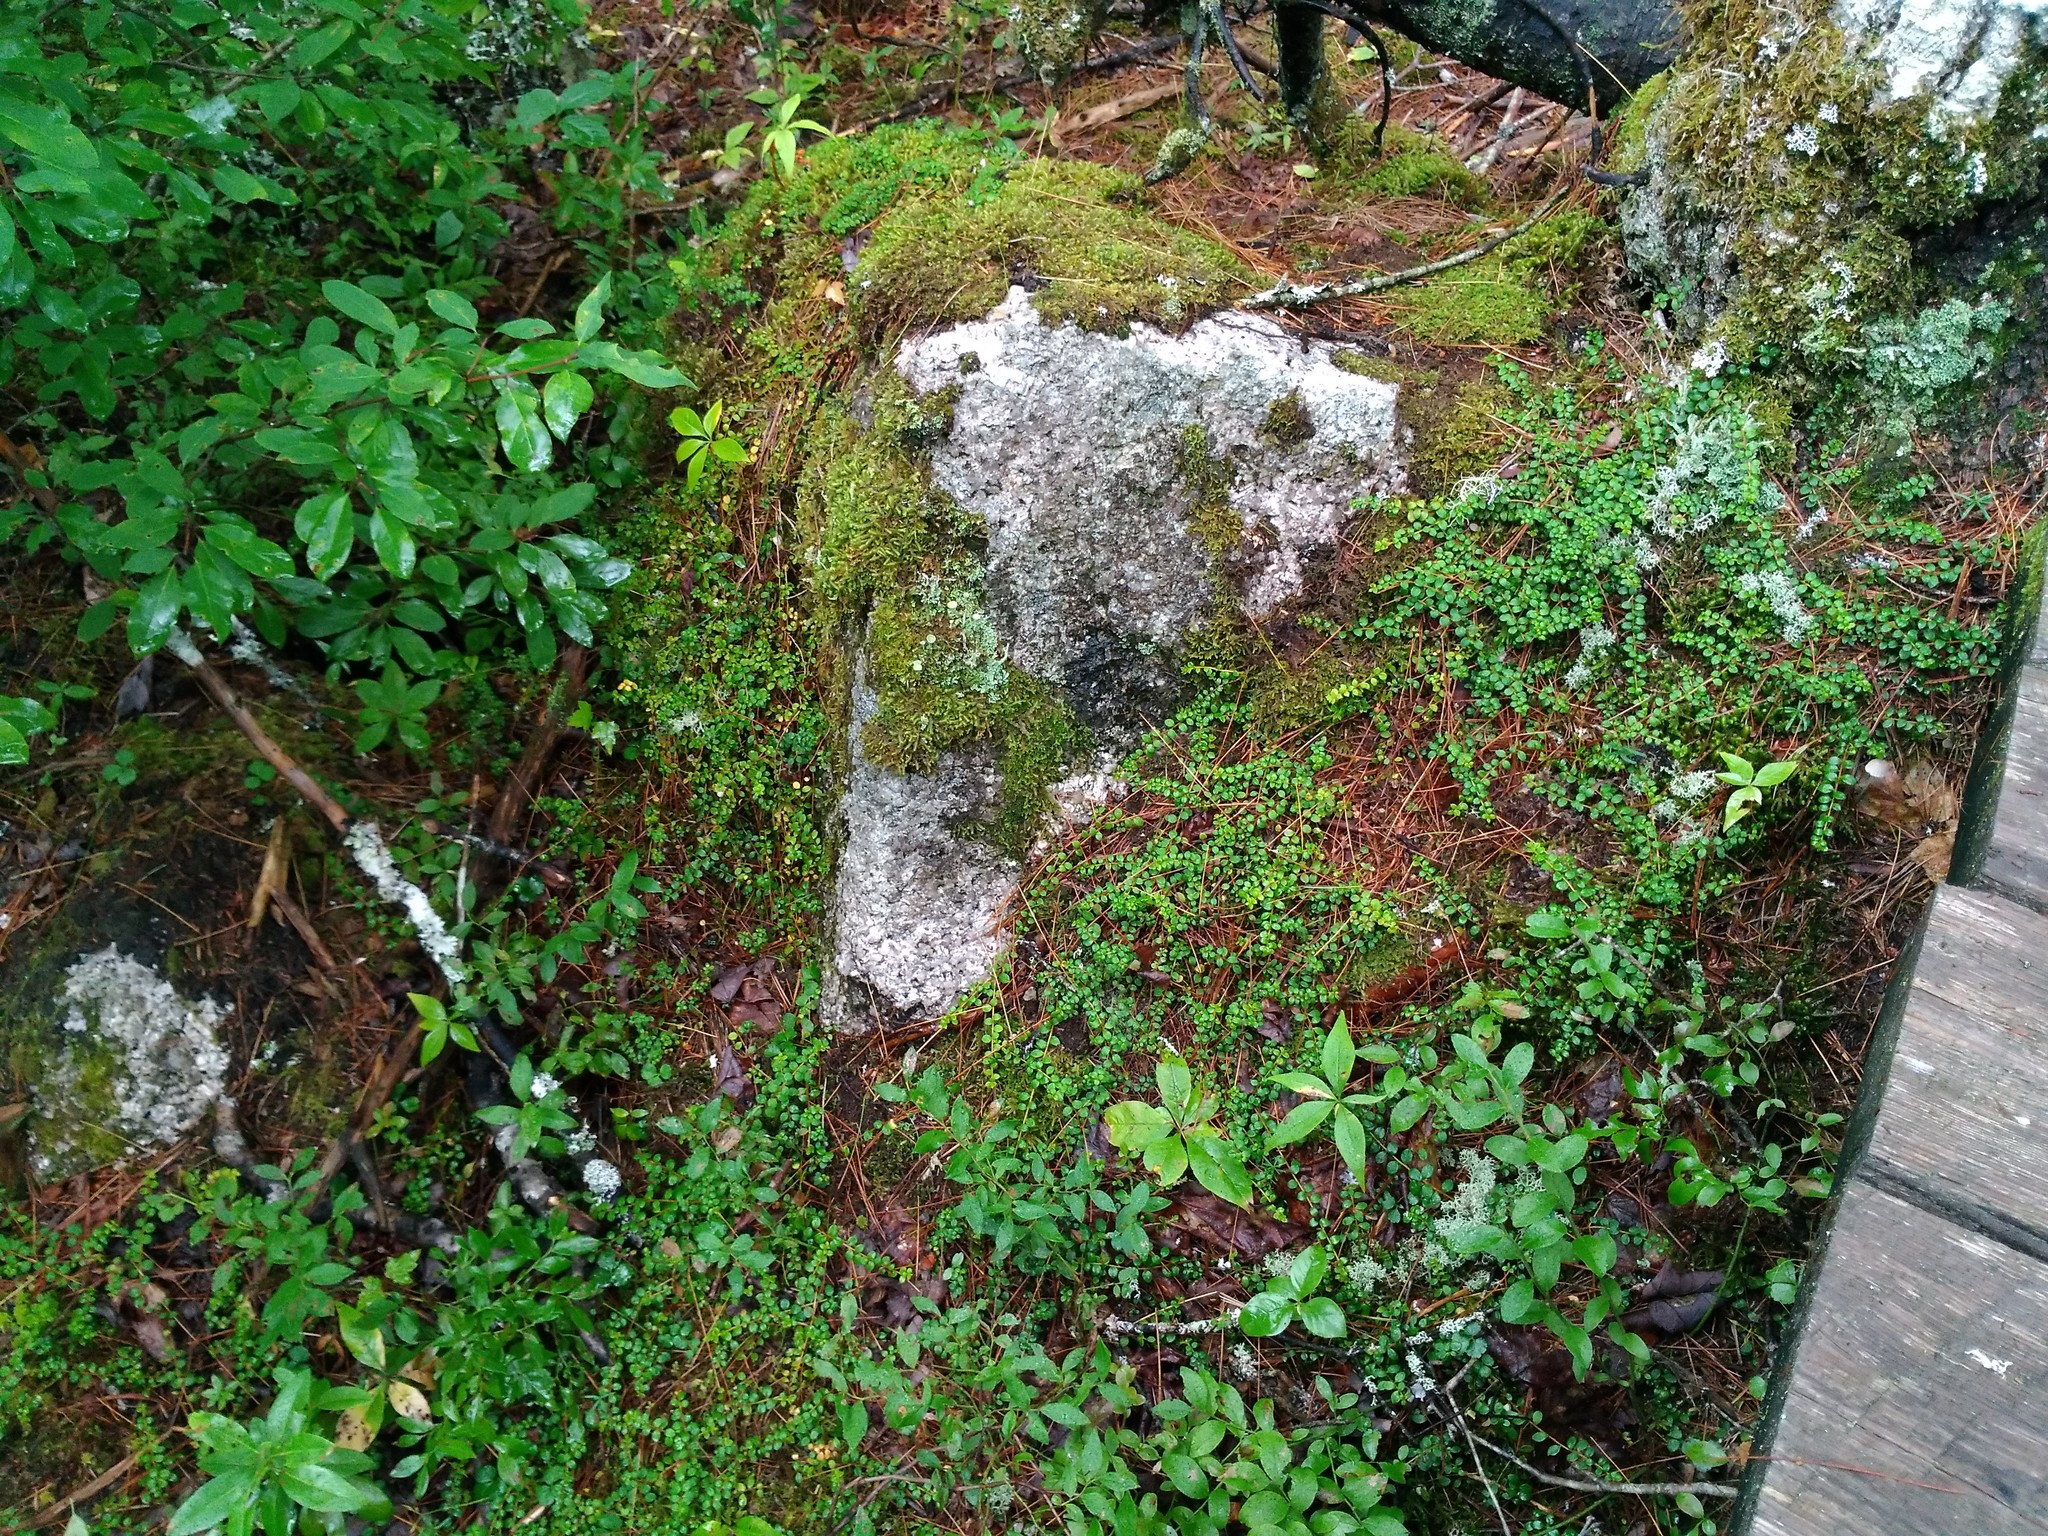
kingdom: Plantae
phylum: Tracheophyta
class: Magnoliopsida
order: Ericales
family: Ericaceae
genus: Gaultheria
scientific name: Gaultheria hispidula
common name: Cancer wintergreen
